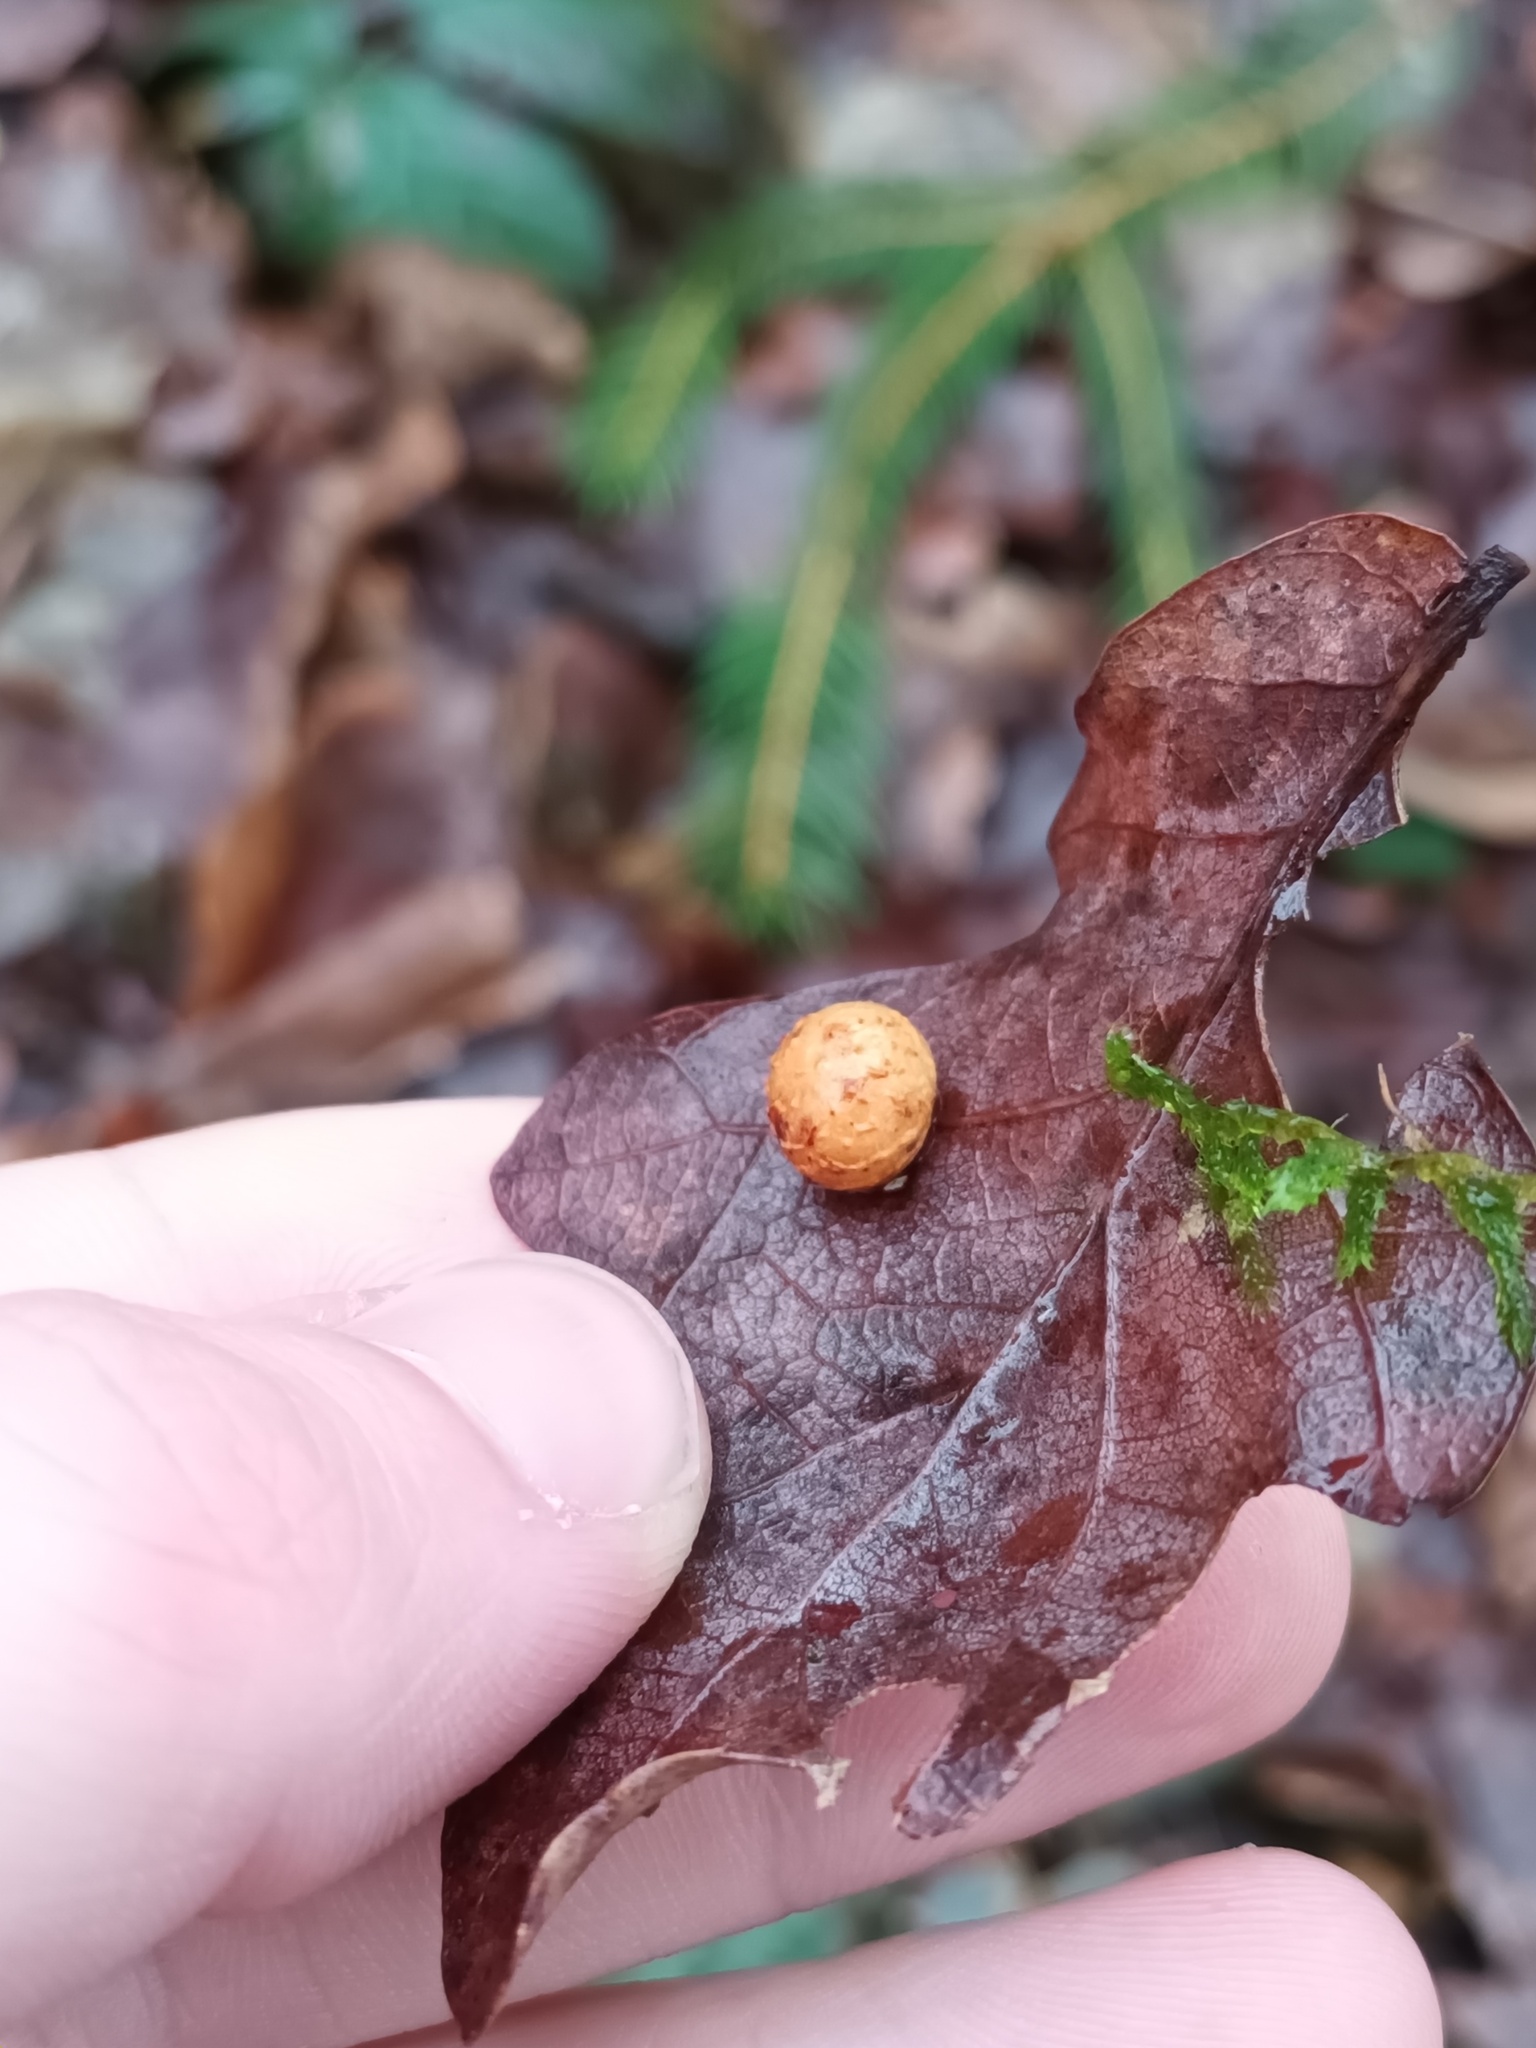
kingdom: Animalia
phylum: Arthropoda
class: Insecta
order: Hymenoptera
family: Cynipidae
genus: Cynips
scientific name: Cynips longiventris
